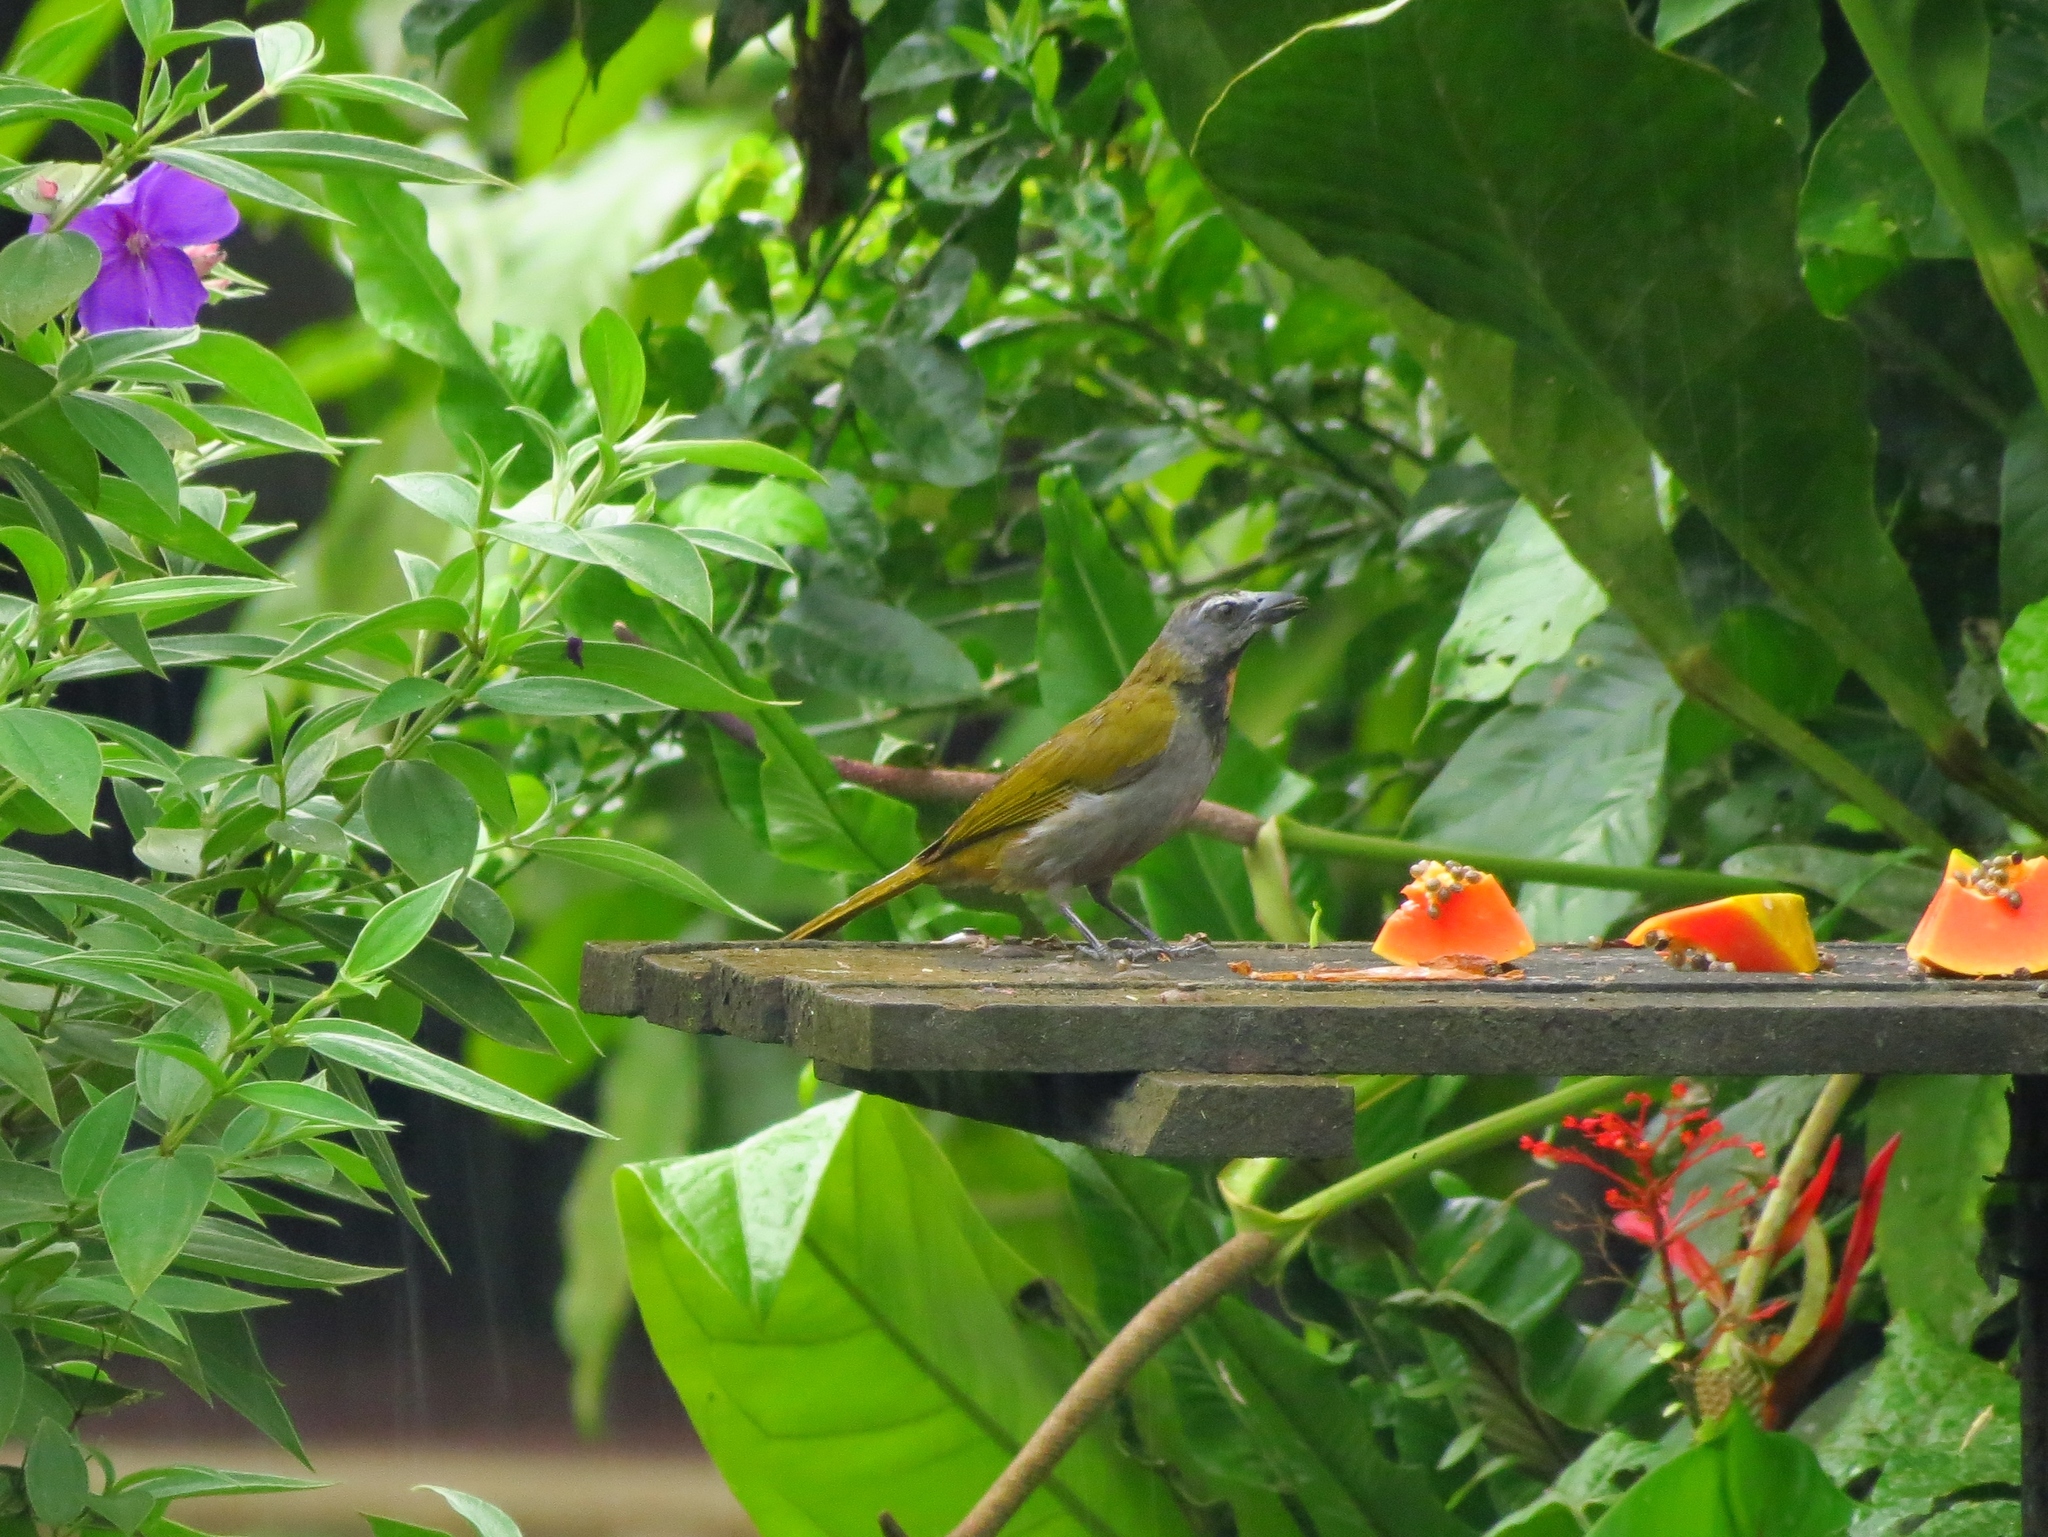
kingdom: Animalia
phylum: Chordata
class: Aves
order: Passeriformes
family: Thraupidae
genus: Saltator
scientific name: Saltator maximus
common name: Buff-throated saltator
